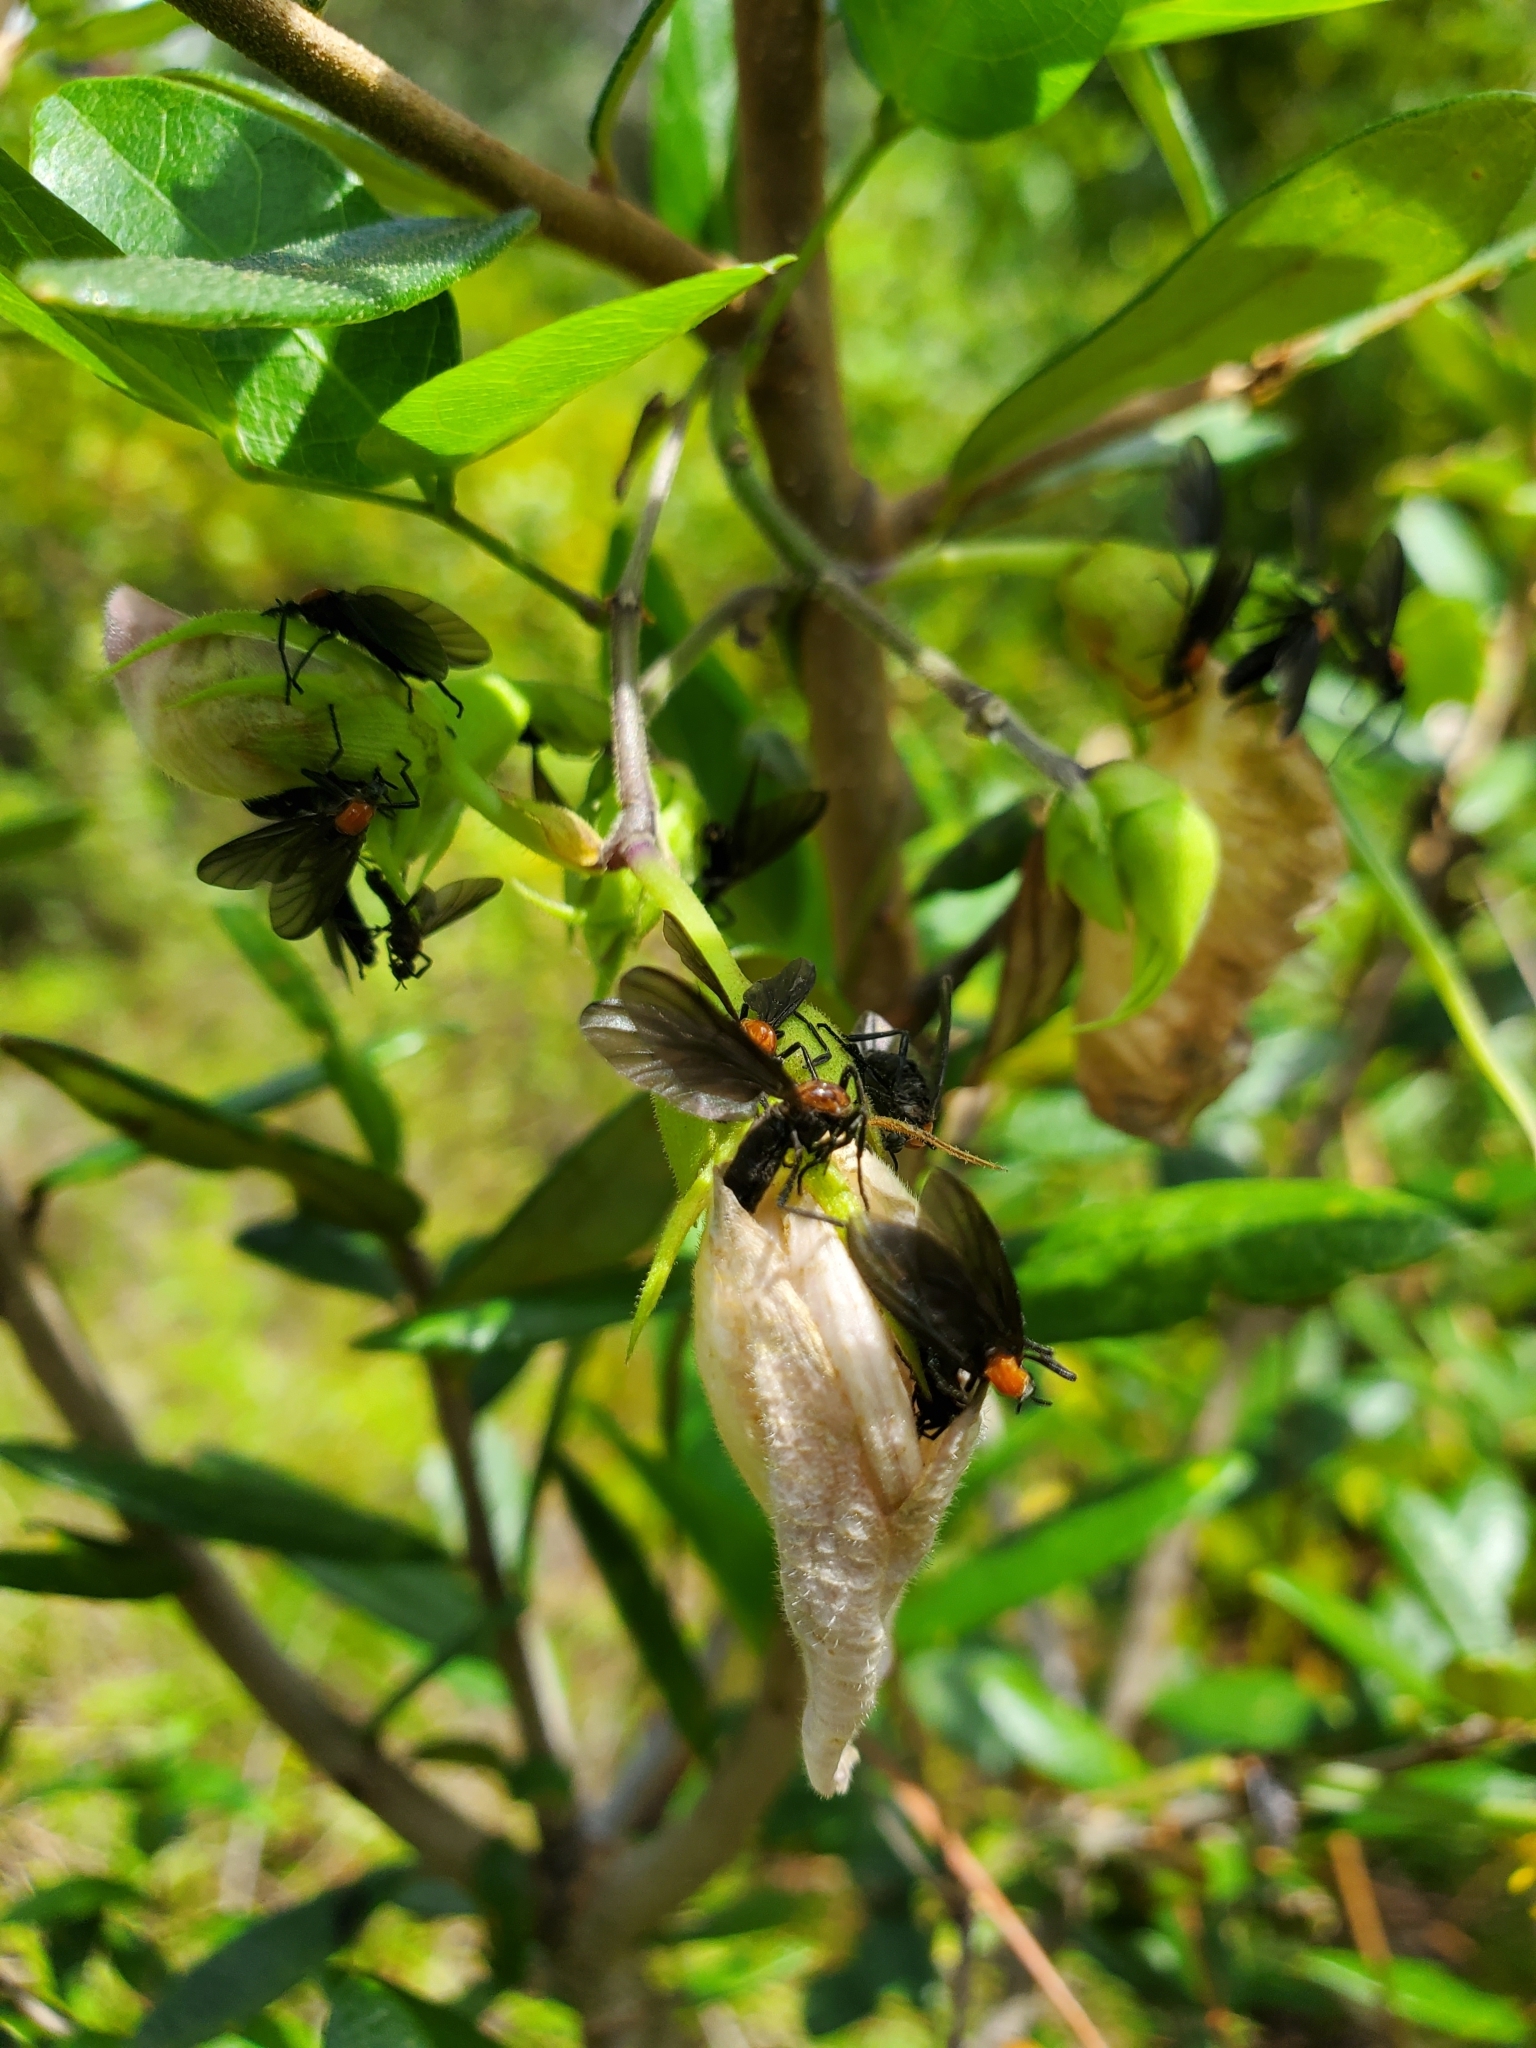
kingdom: Animalia
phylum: Arthropoda
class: Insecta
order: Diptera
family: Bibionidae
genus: Plecia
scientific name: Plecia nearctica
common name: March fly
